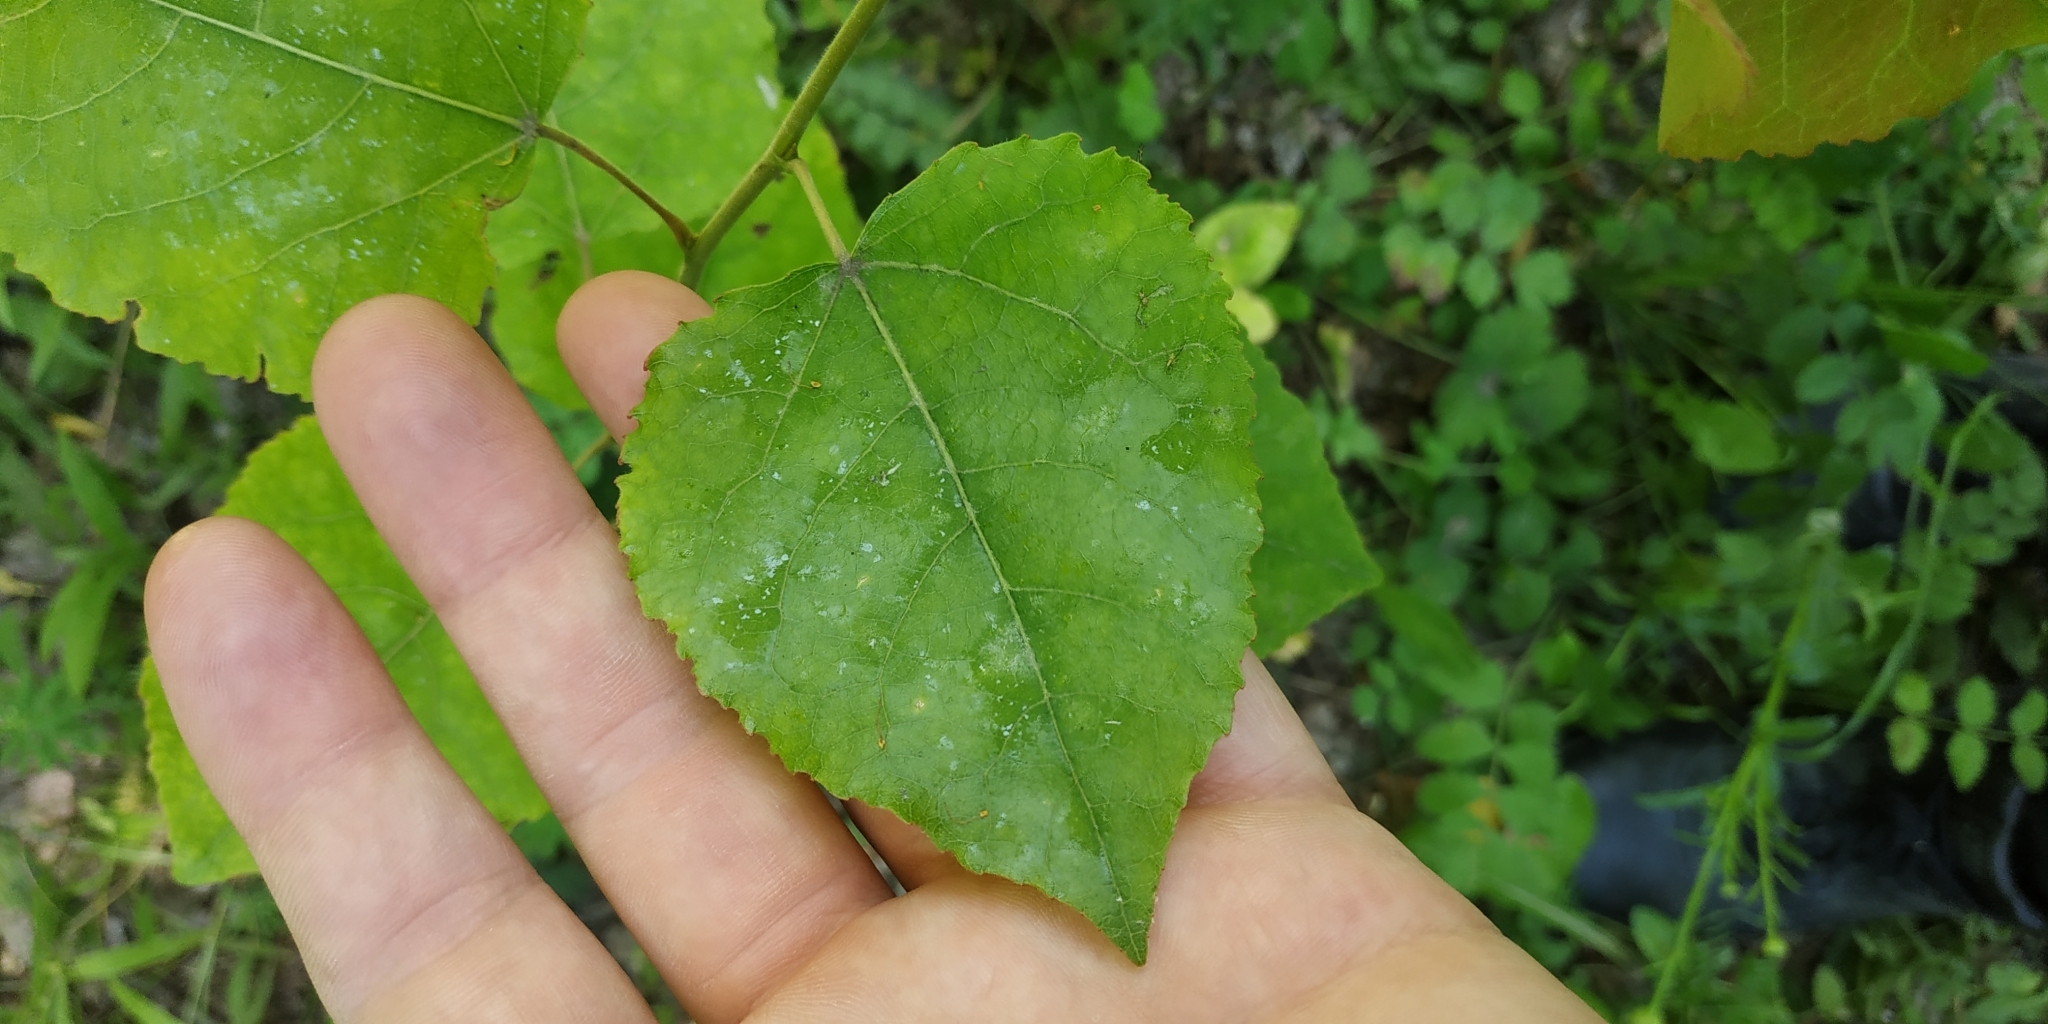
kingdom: Plantae
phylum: Tracheophyta
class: Magnoliopsida
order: Malpighiales
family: Salicaceae
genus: Populus
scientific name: Populus tremula
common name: European aspen
